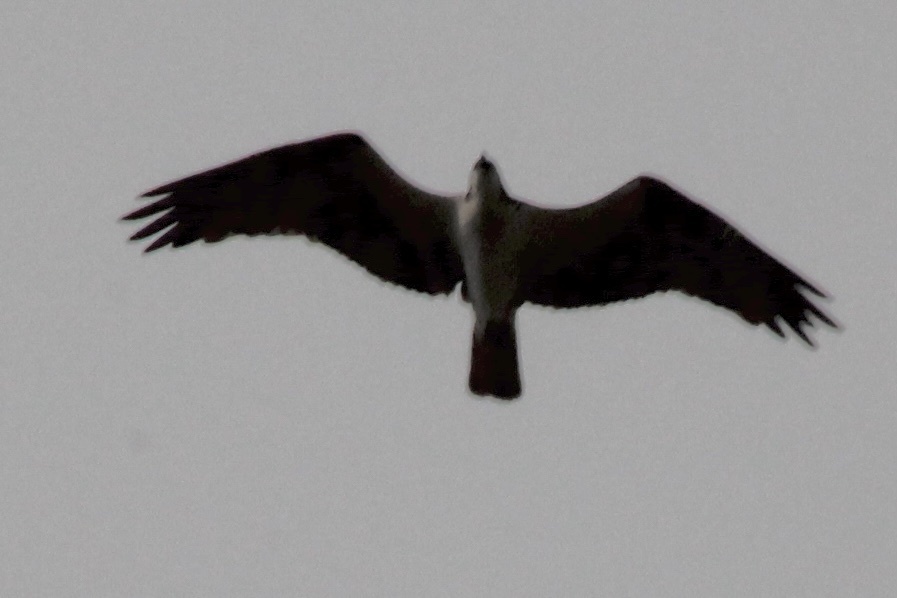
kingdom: Animalia
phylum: Chordata
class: Aves
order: Accipitriformes
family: Pandionidae
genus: Pandion
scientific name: Pandion haliaetus
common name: Osprey
